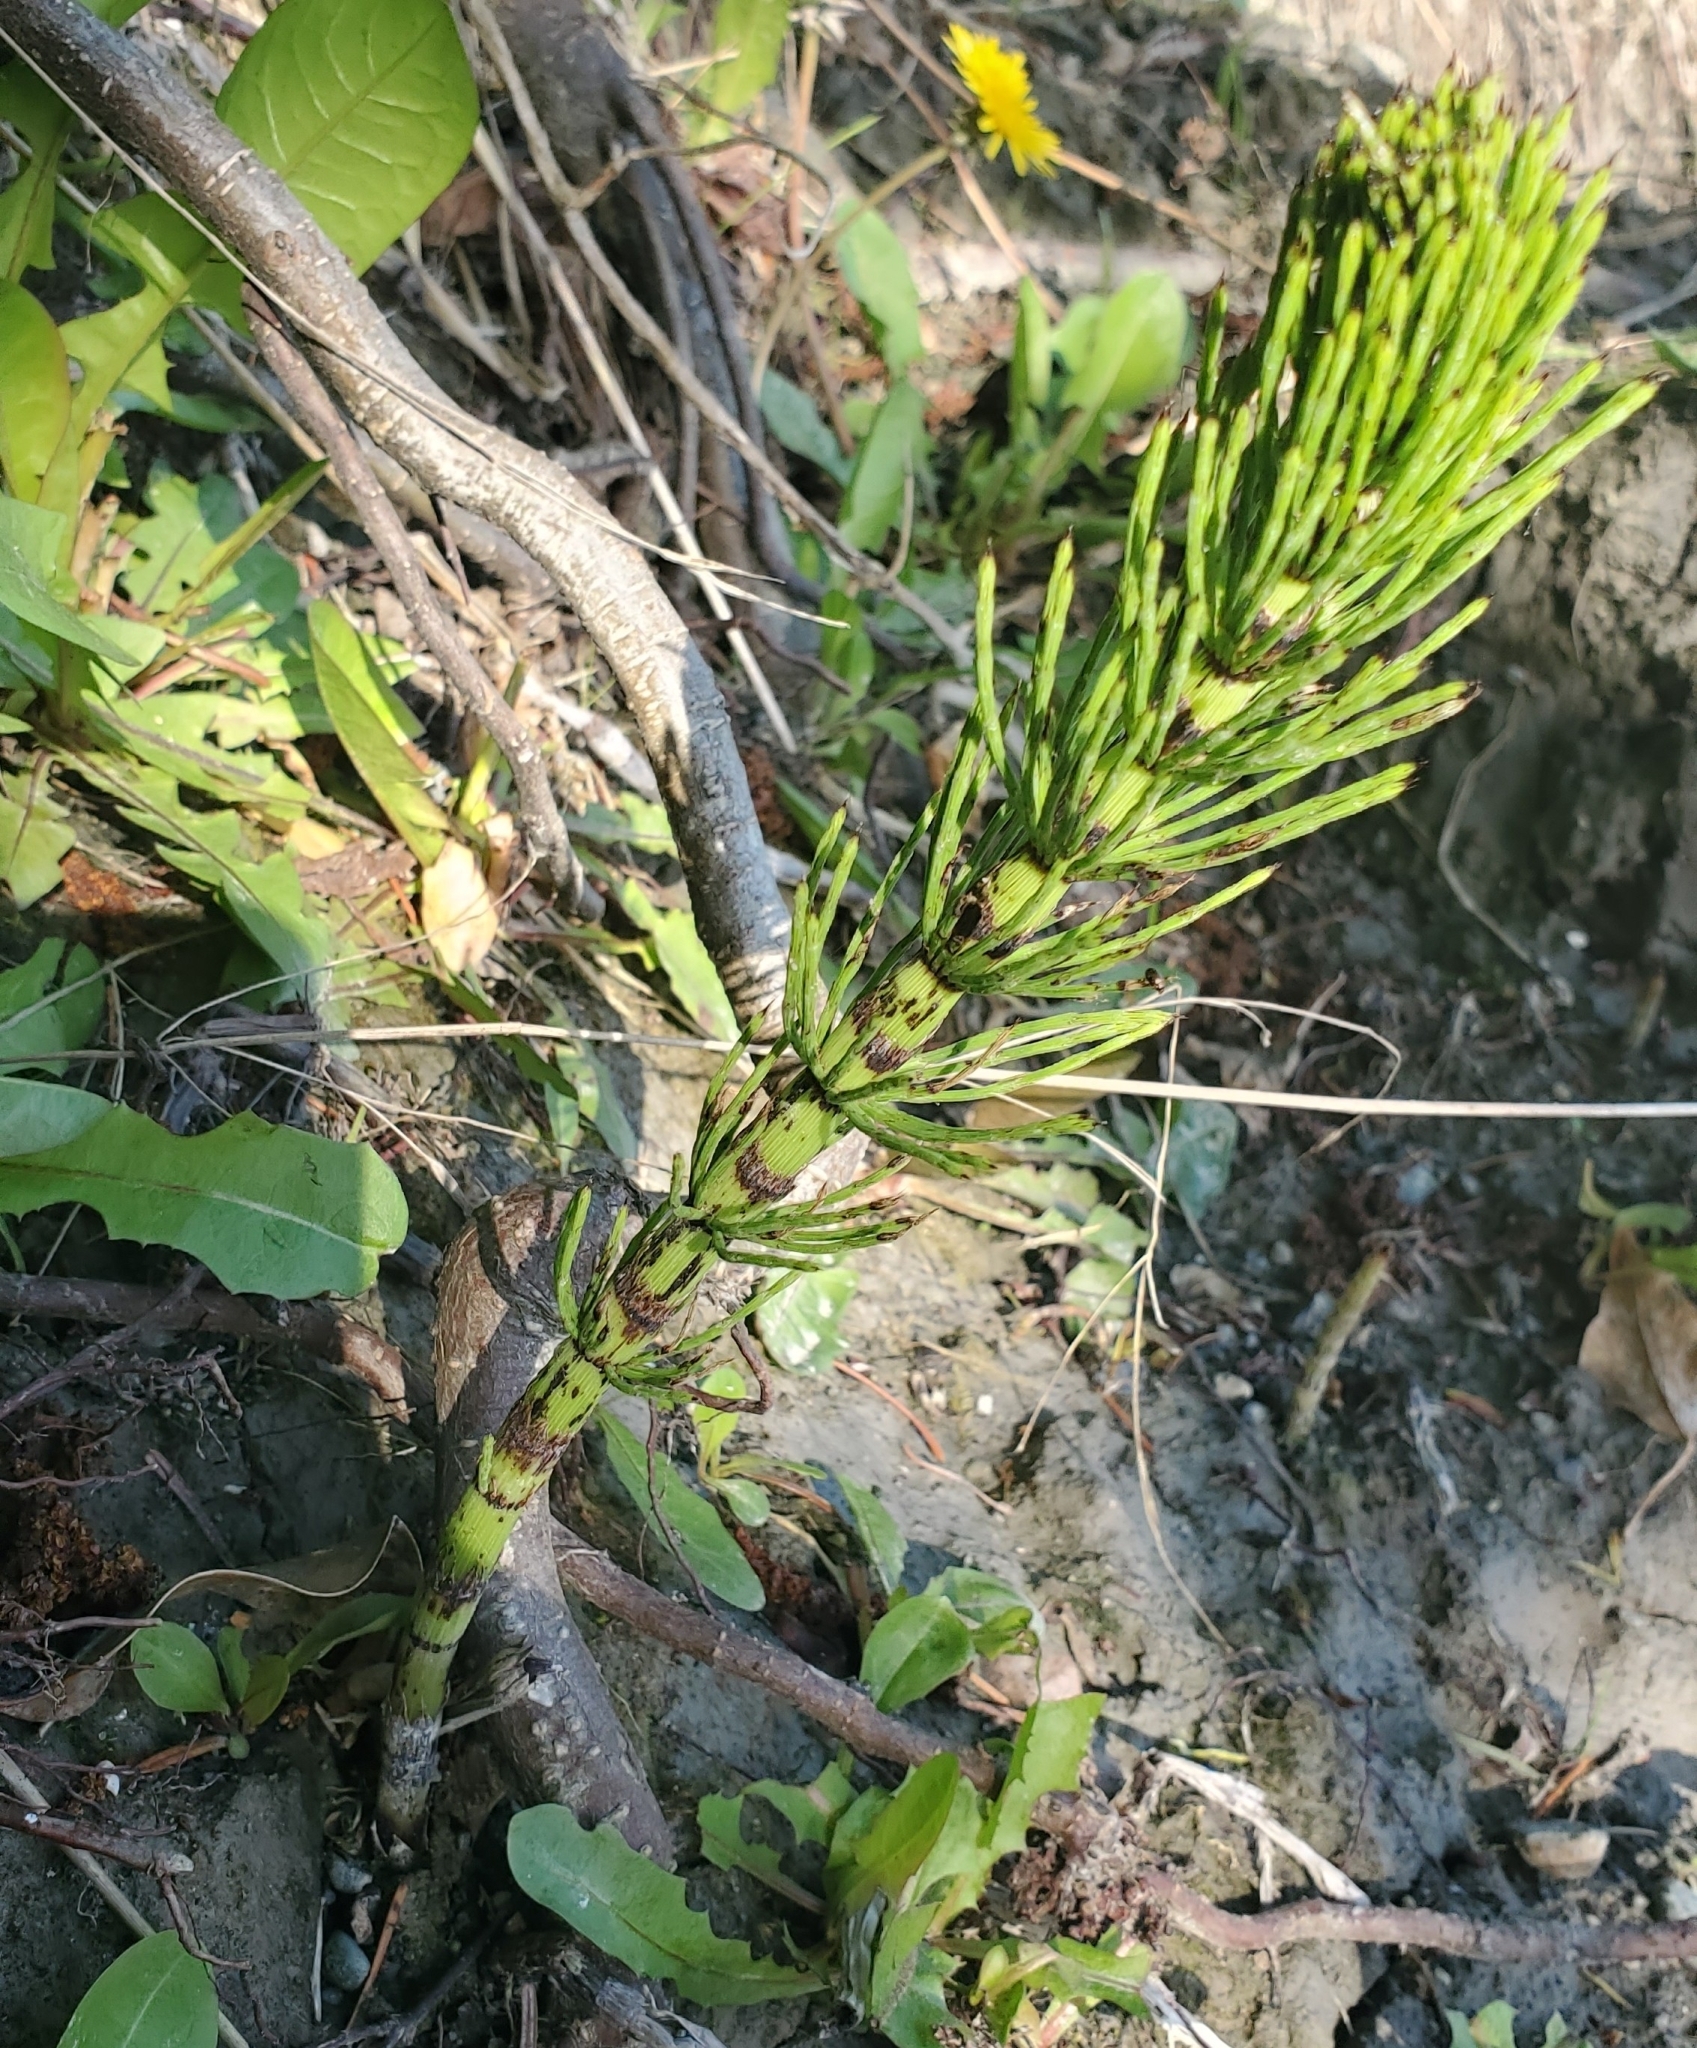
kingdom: Plantae
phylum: Tracheophyta
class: Polypodiopsida
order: Equisetales
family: Equisetaceae
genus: Equisetum
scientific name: Equisetum telmateia
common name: Great horsetail
